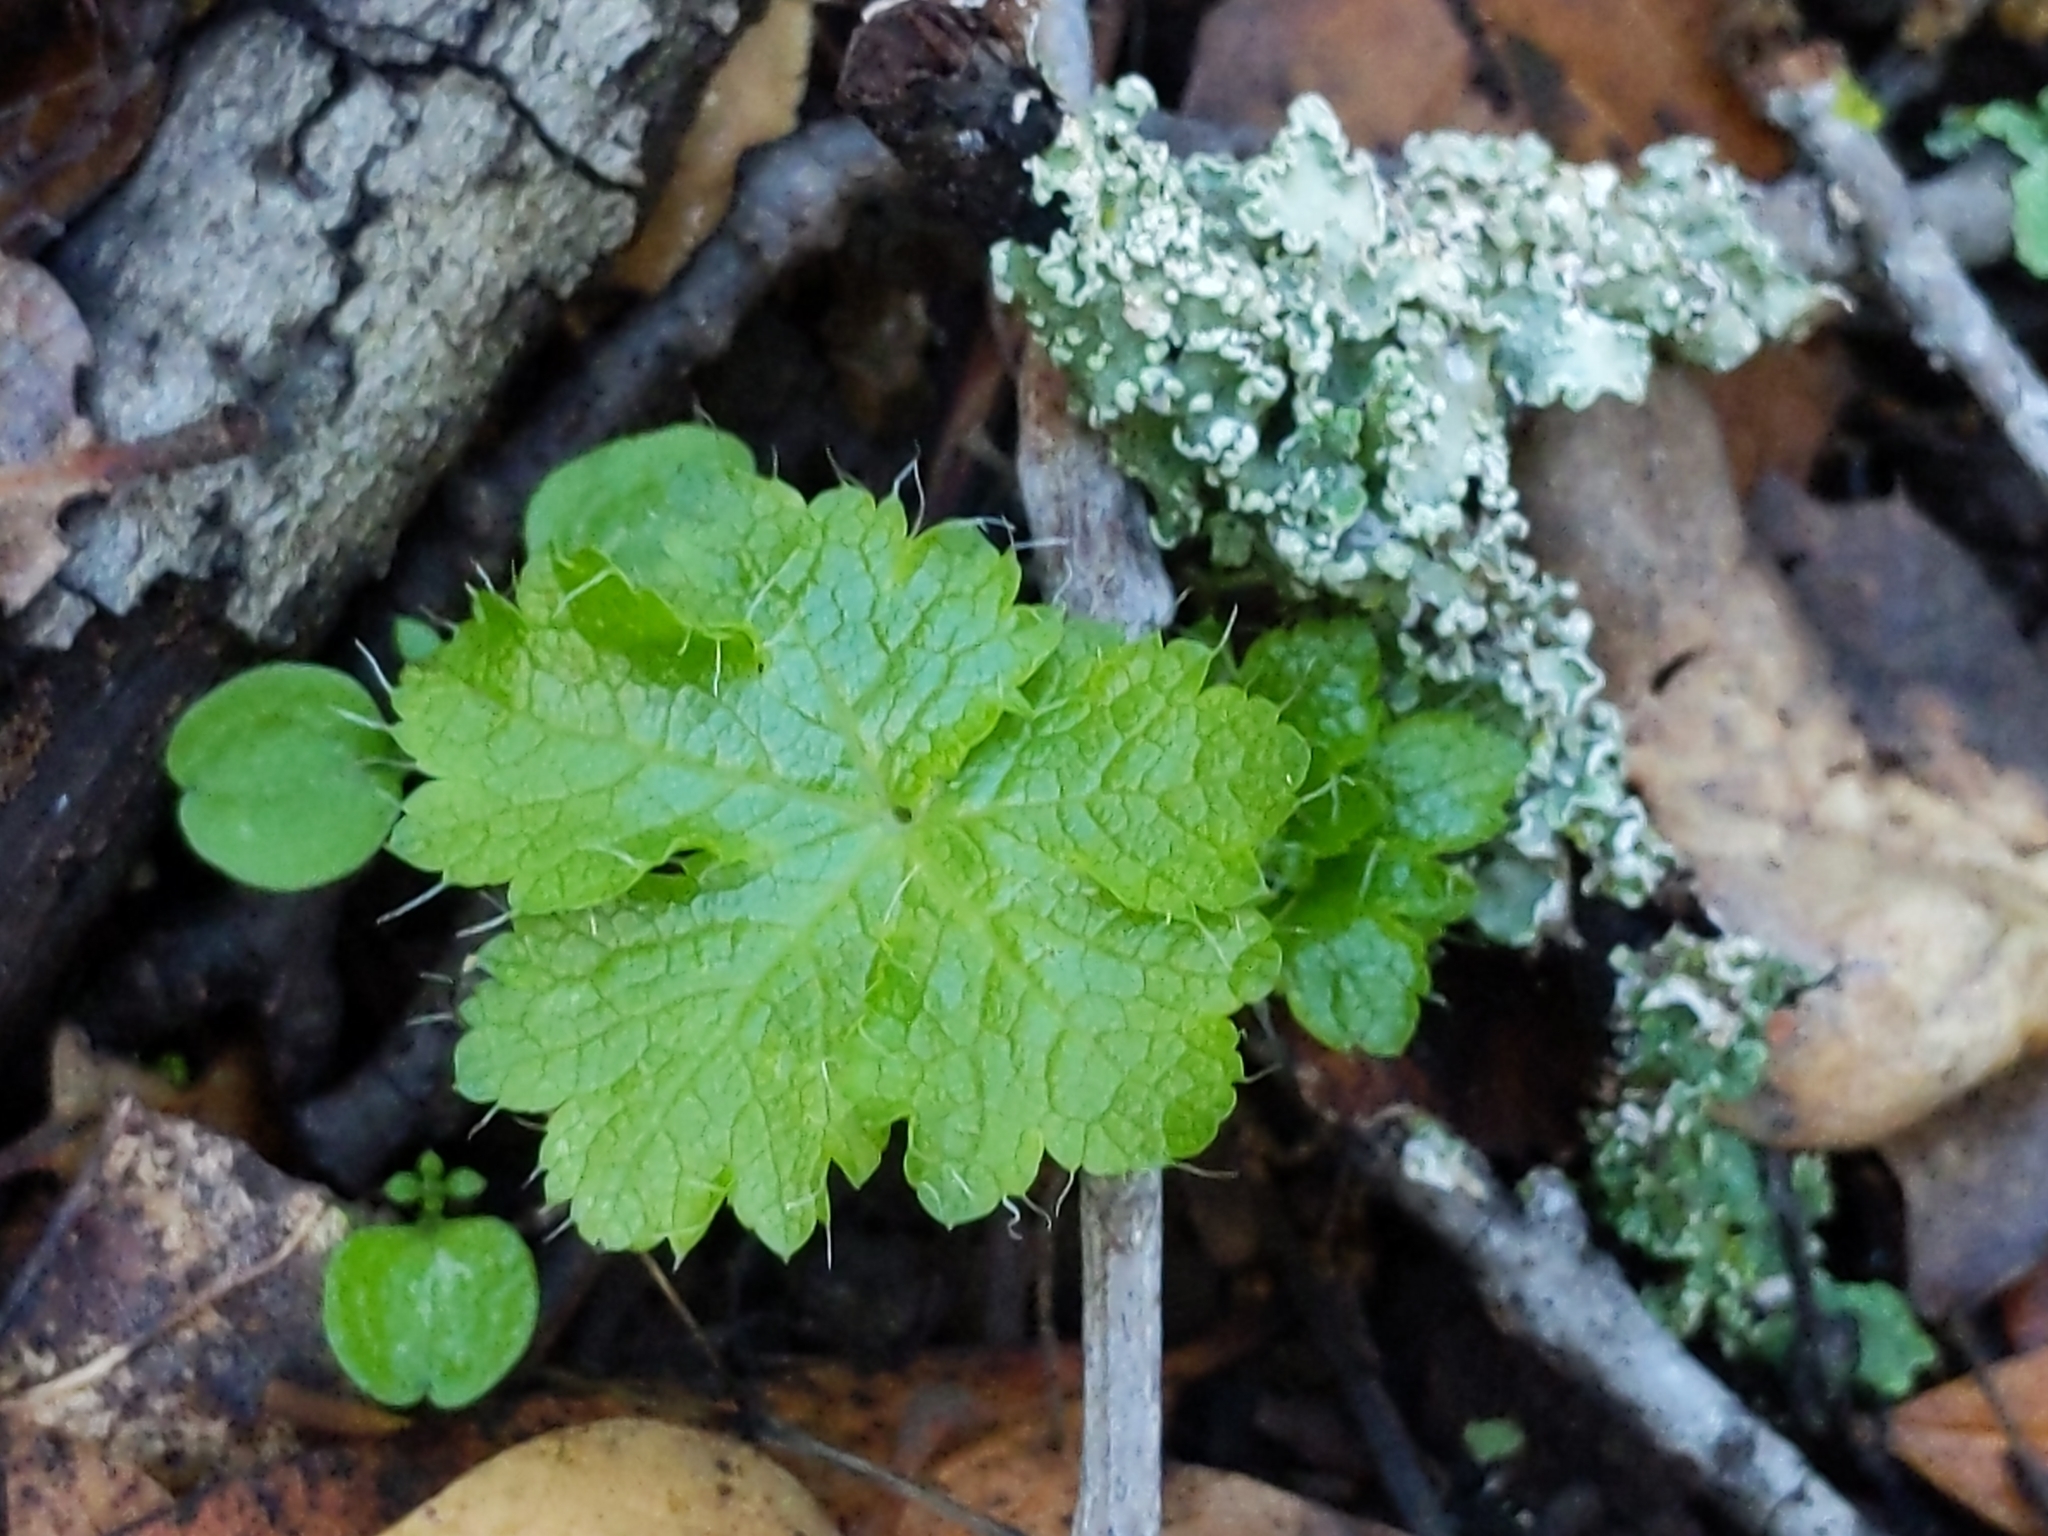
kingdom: Plantae
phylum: Tracheophyta
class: Magnoliopsida
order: Apiales
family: Apiaceae
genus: Sanicula
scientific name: Sanicula crassicaulis
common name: Western snakeroot
